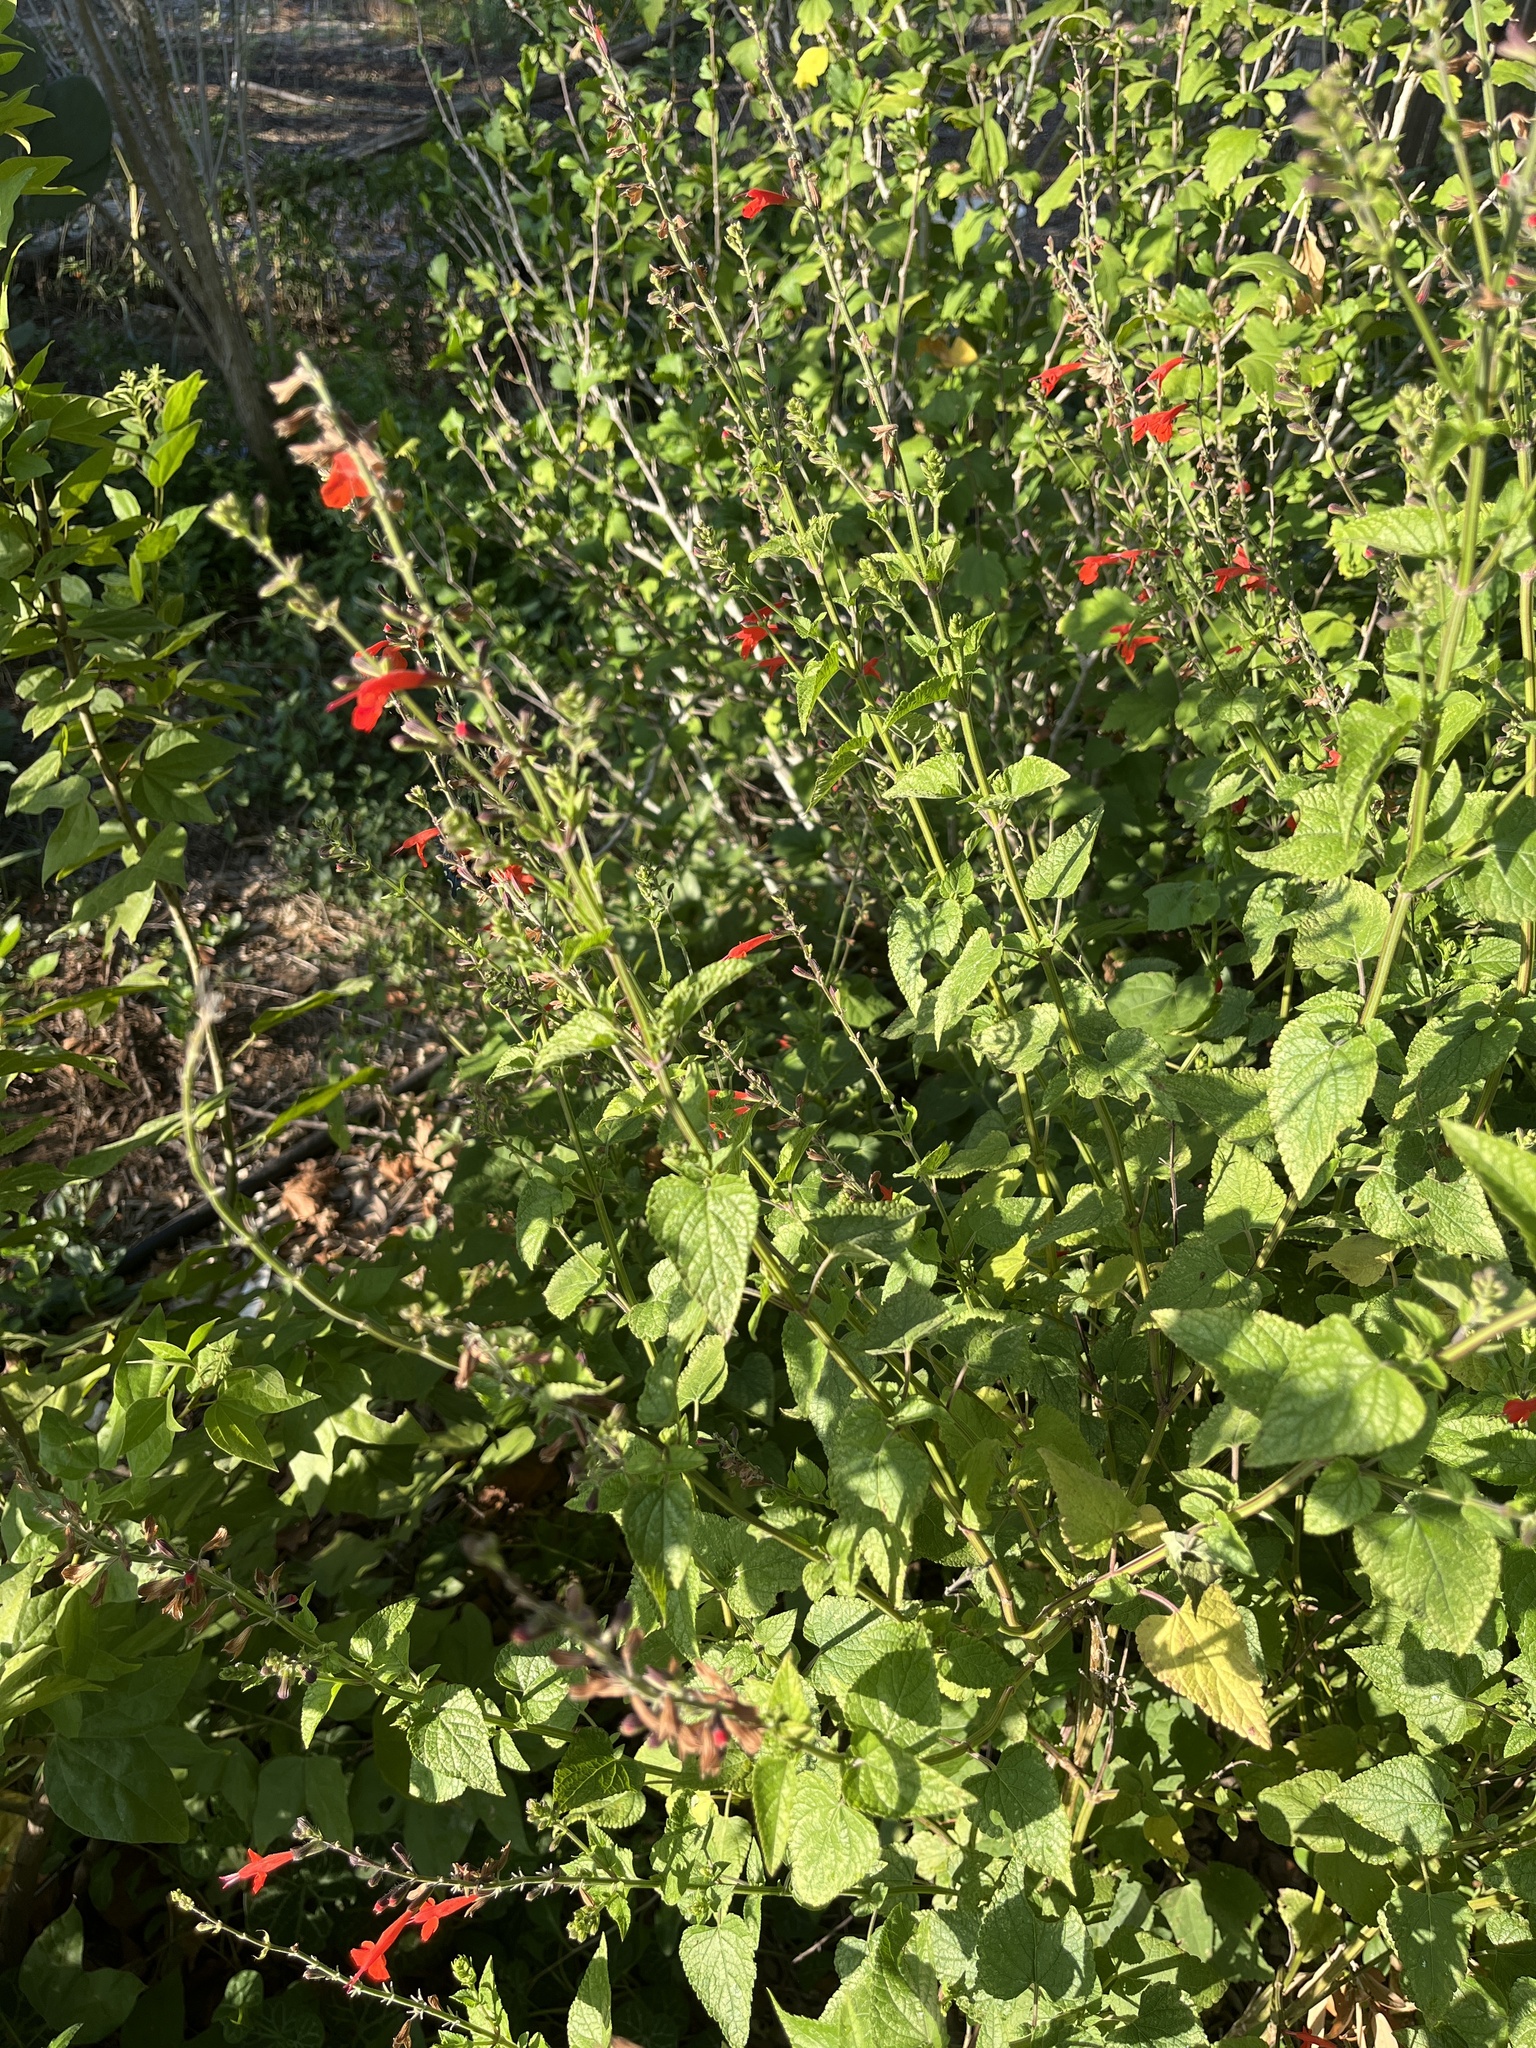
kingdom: Plantae
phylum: Tracheophyta
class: Magnoliopsida
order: Lamiales
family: Lamiaceae
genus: Salvia
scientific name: Salvia coccinea
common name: Blood sage
